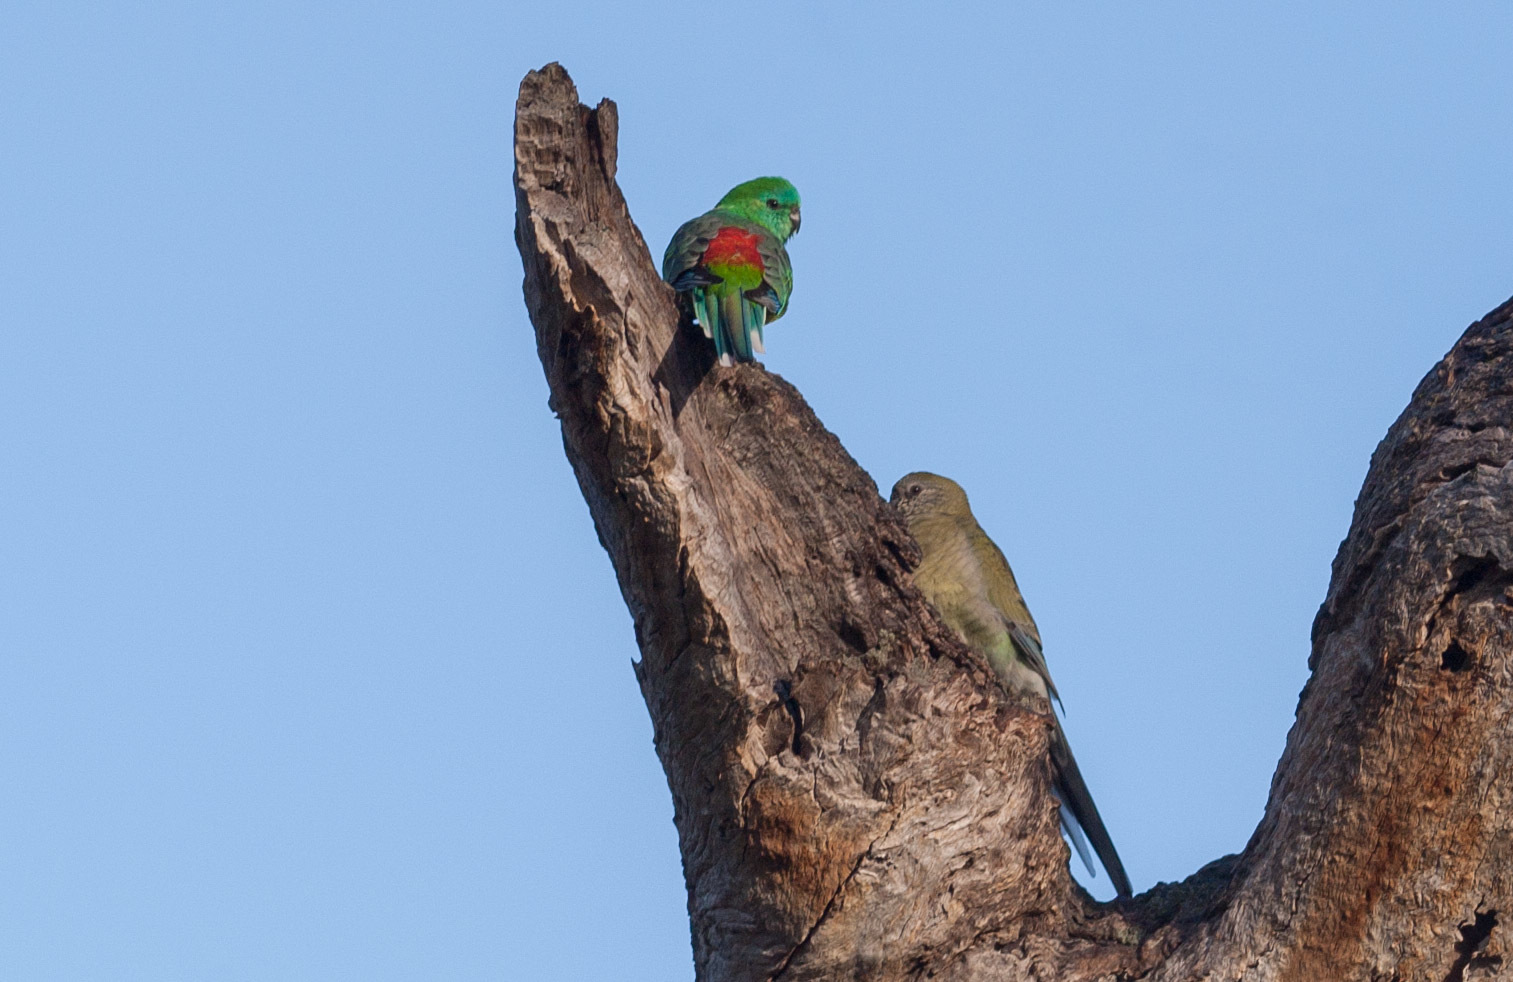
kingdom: Animalia
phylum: Chordata
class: Aves
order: Psittaciformes
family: Psittacidae
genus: Psephotus
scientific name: Psephotus haematonotus
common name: Red-rumped parrot
